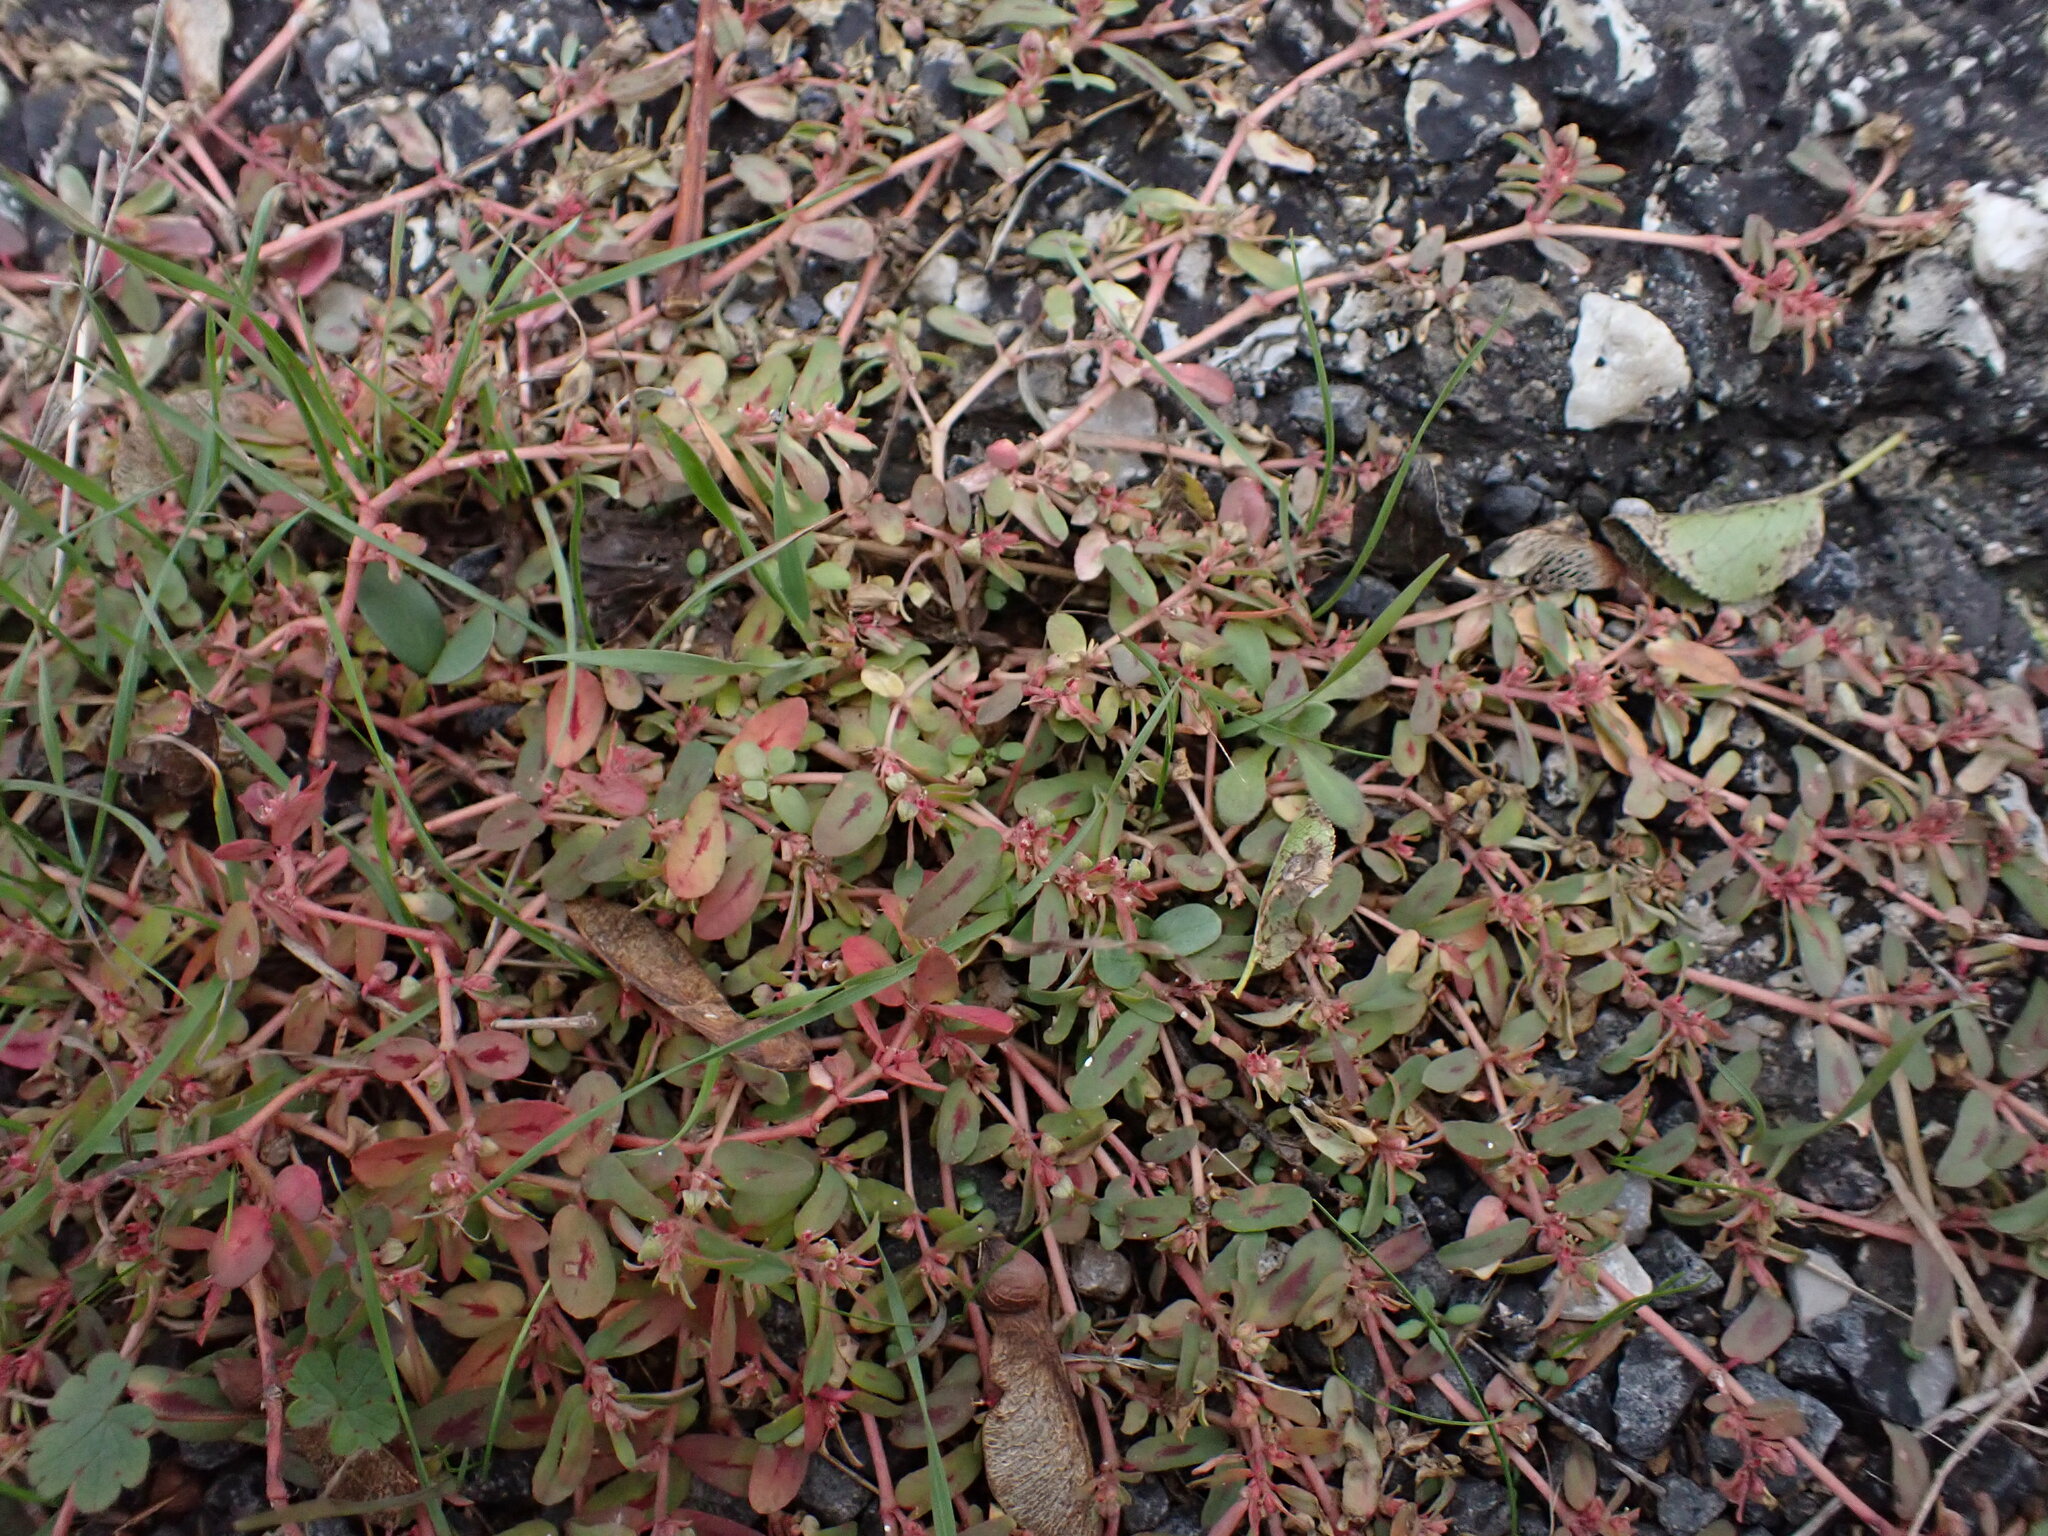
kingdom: Plantae
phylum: Tracheophyta
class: Magnoliopsida
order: Malpighiales
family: Euphorbiaceae
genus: Euphorbia
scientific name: Euphorbia maculata
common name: Spotted spurge
